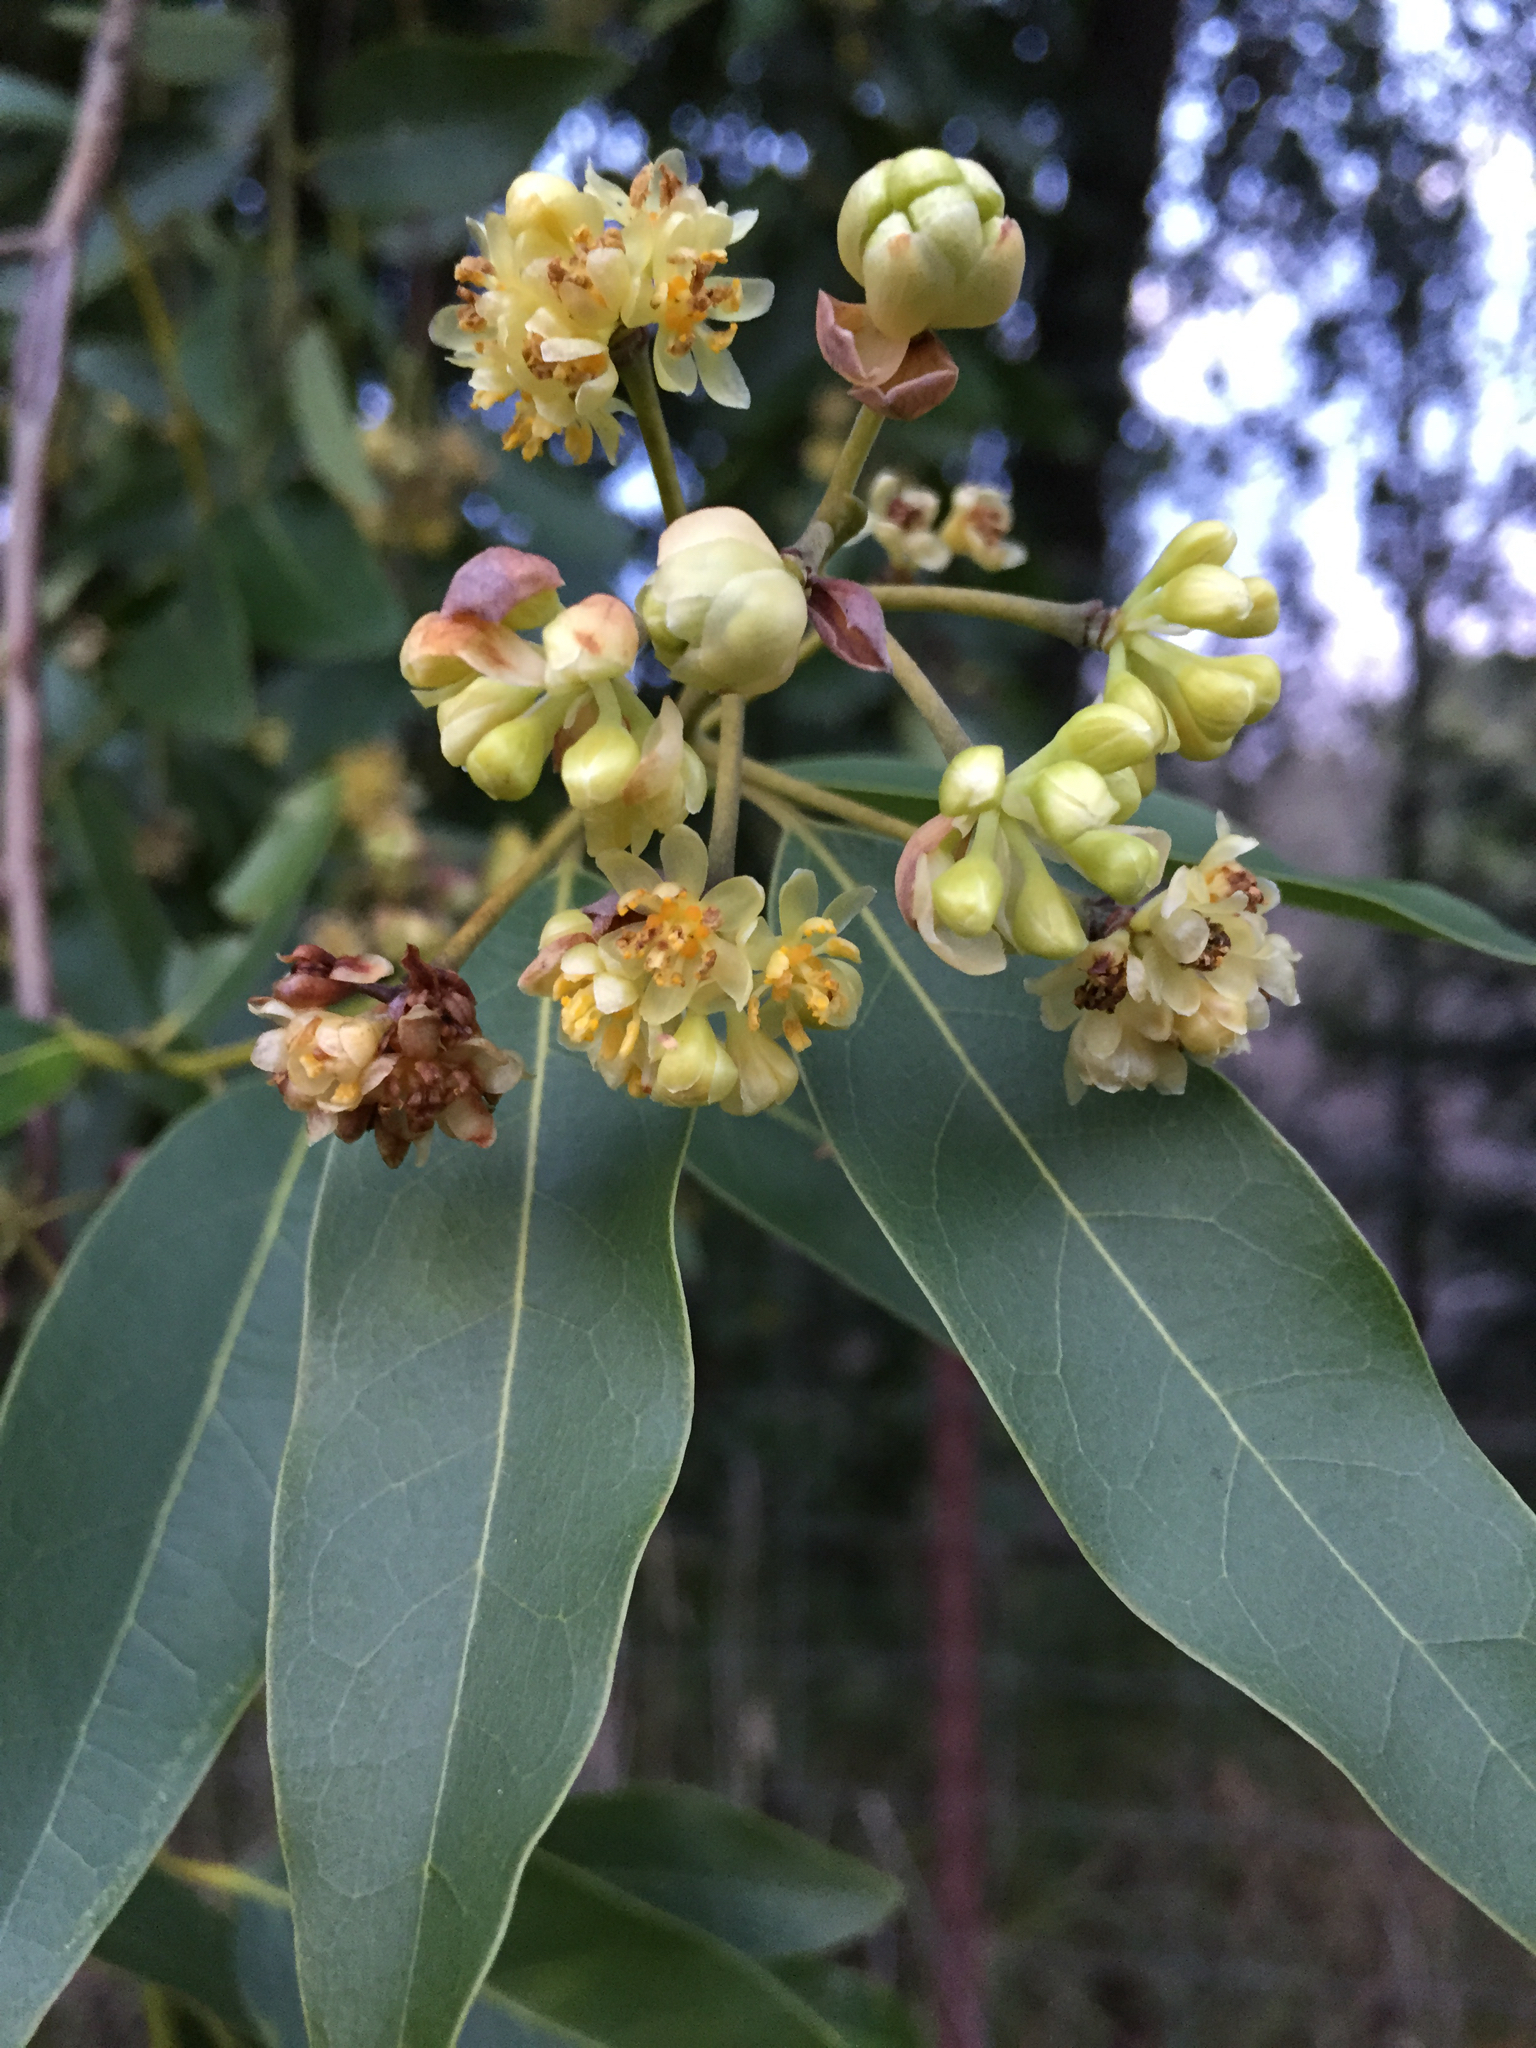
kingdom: Plantae
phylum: Tracheophyta
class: Magnoliopsida
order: Laurales
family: Lauraceae
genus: Umbellularia
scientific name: Umbellularia californica
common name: California bay
